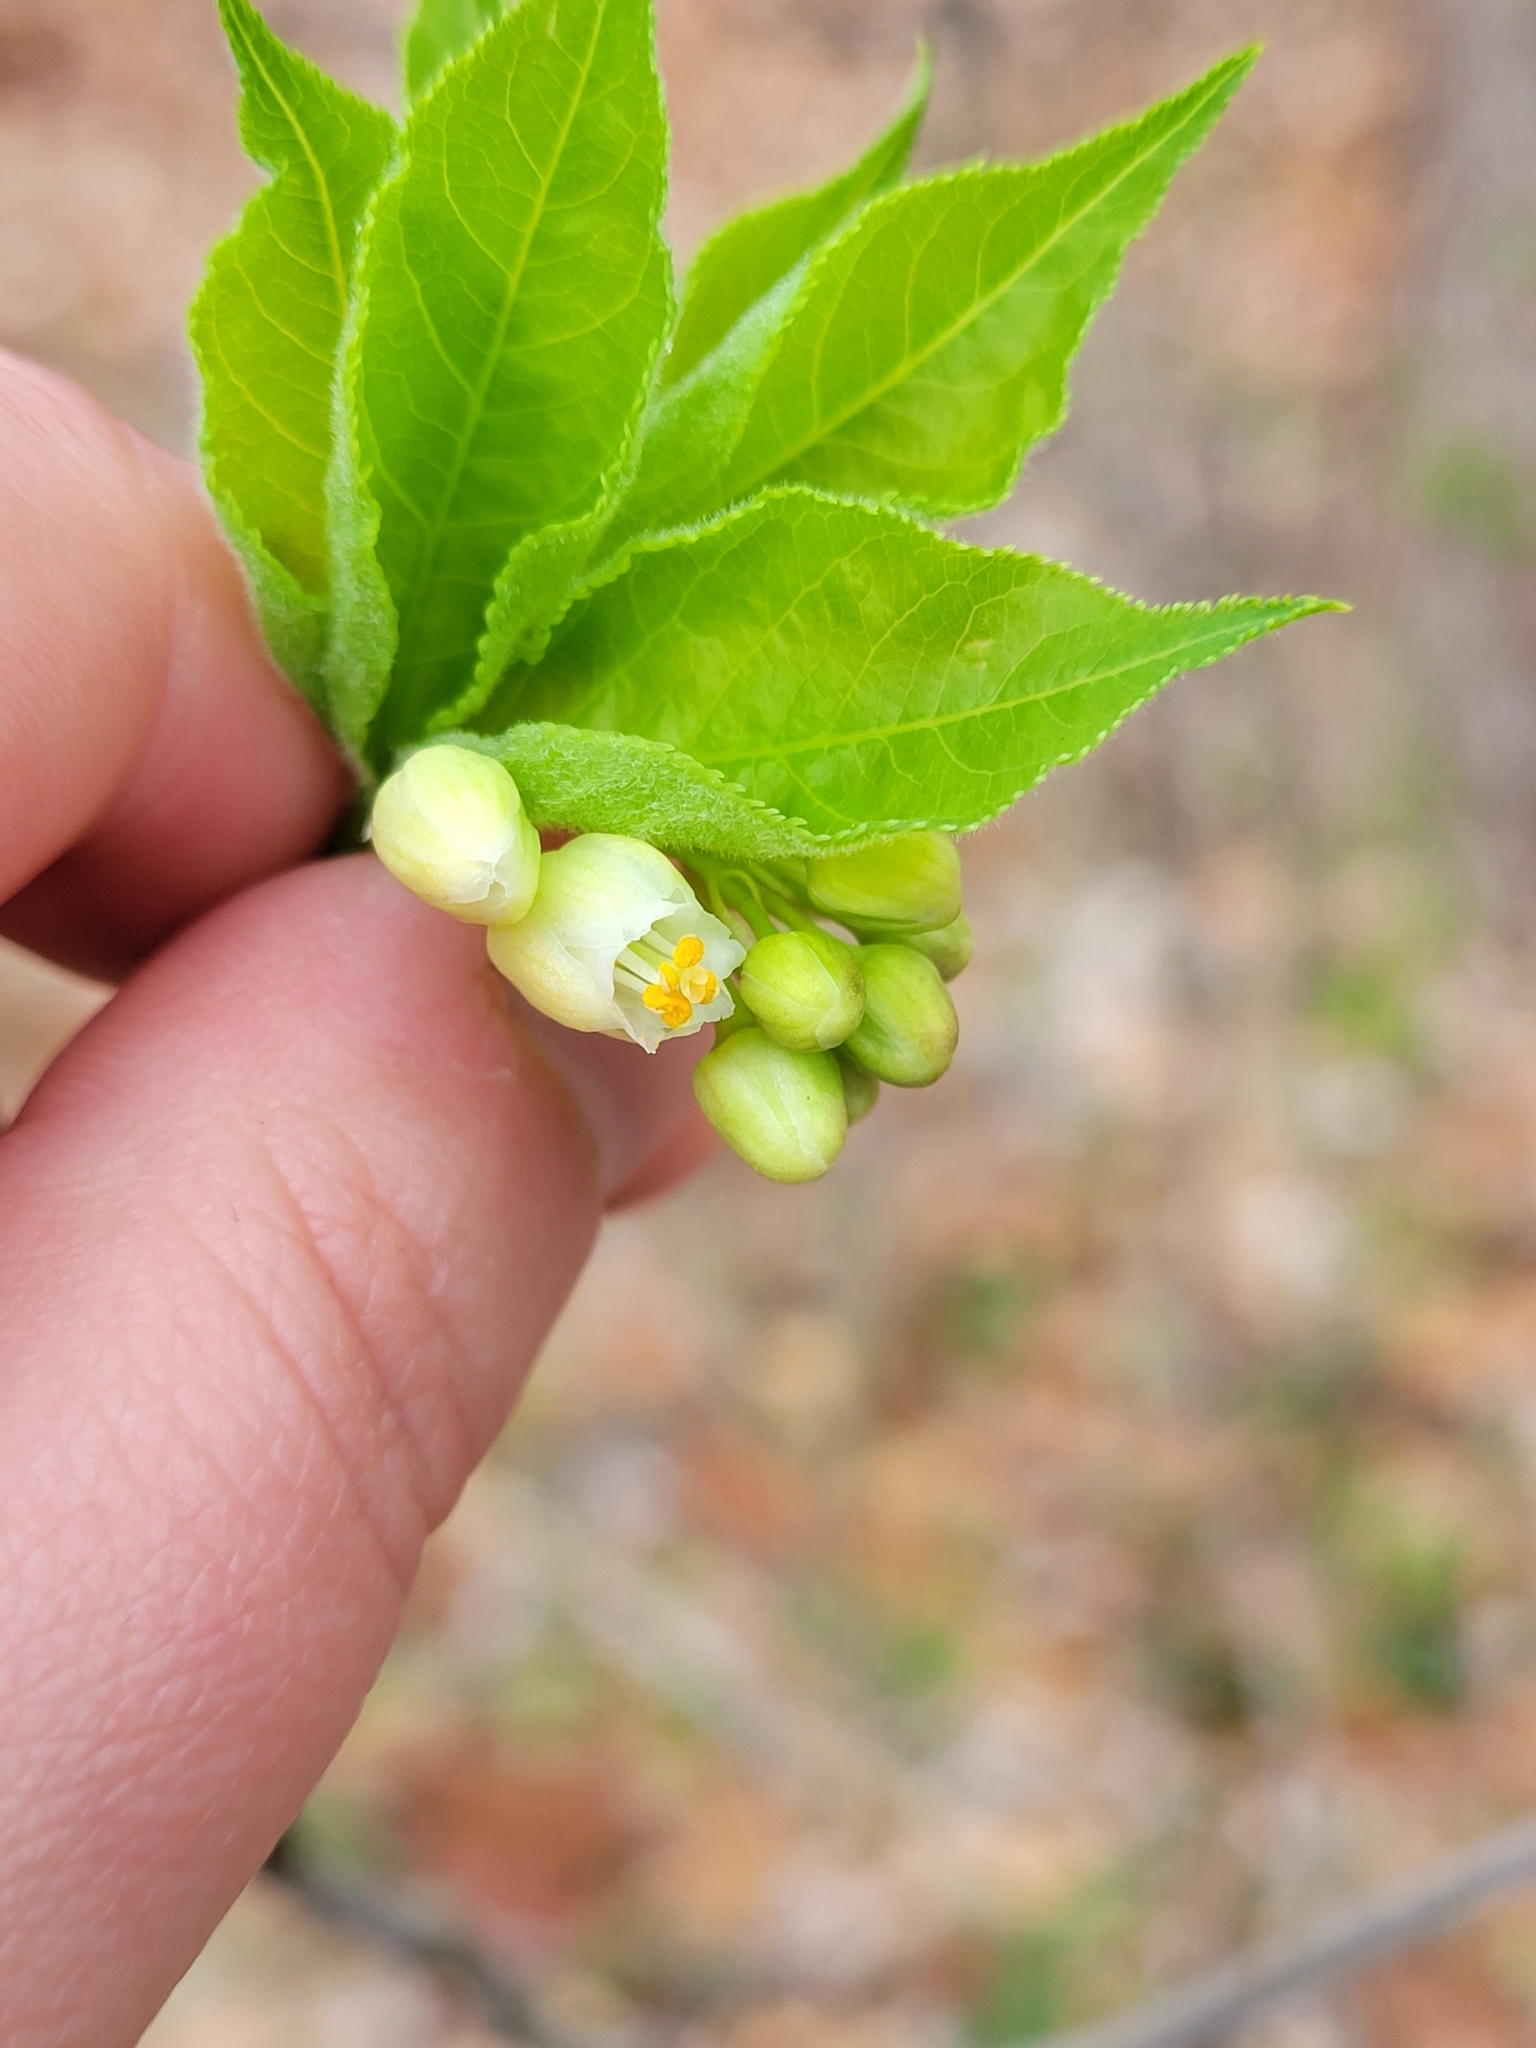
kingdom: Plantae
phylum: Tracheophyta
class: Magnoliopsida
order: Crossosomatales
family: Staphyleaceae
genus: Staphylea
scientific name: Staphylea trifolia
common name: American bladdernut
